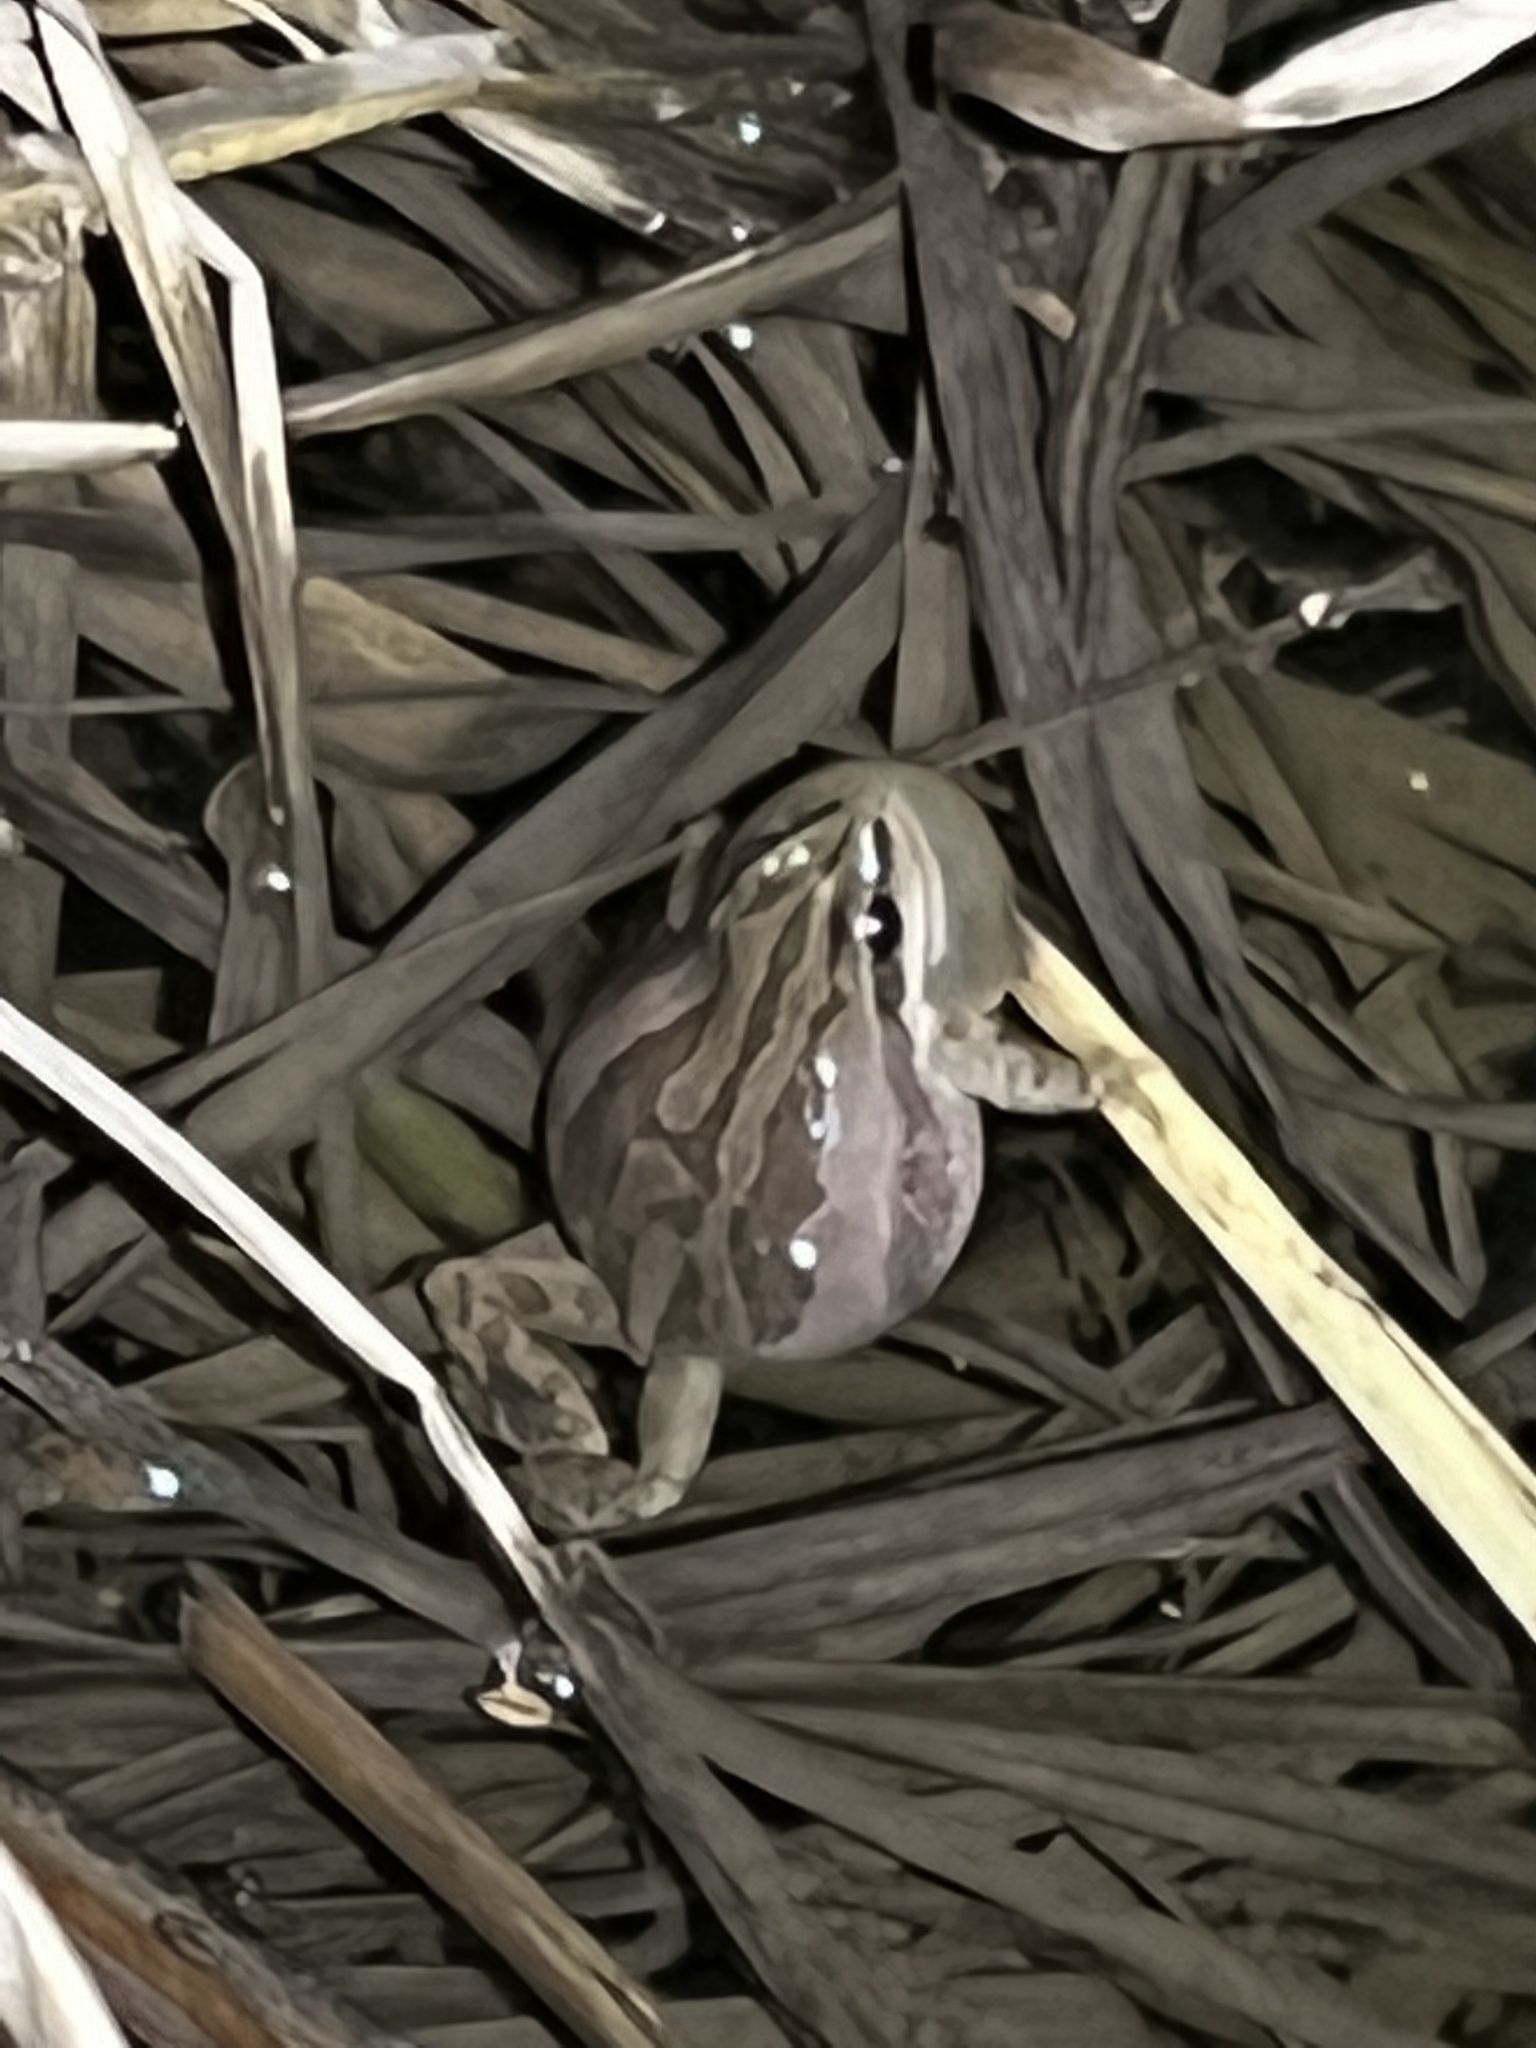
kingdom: Animalia
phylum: Chordata
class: Amphibia
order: Anura
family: Hylidae
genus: Pseudacris
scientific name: Pseudacris maculata
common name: Boreal chorus frog
